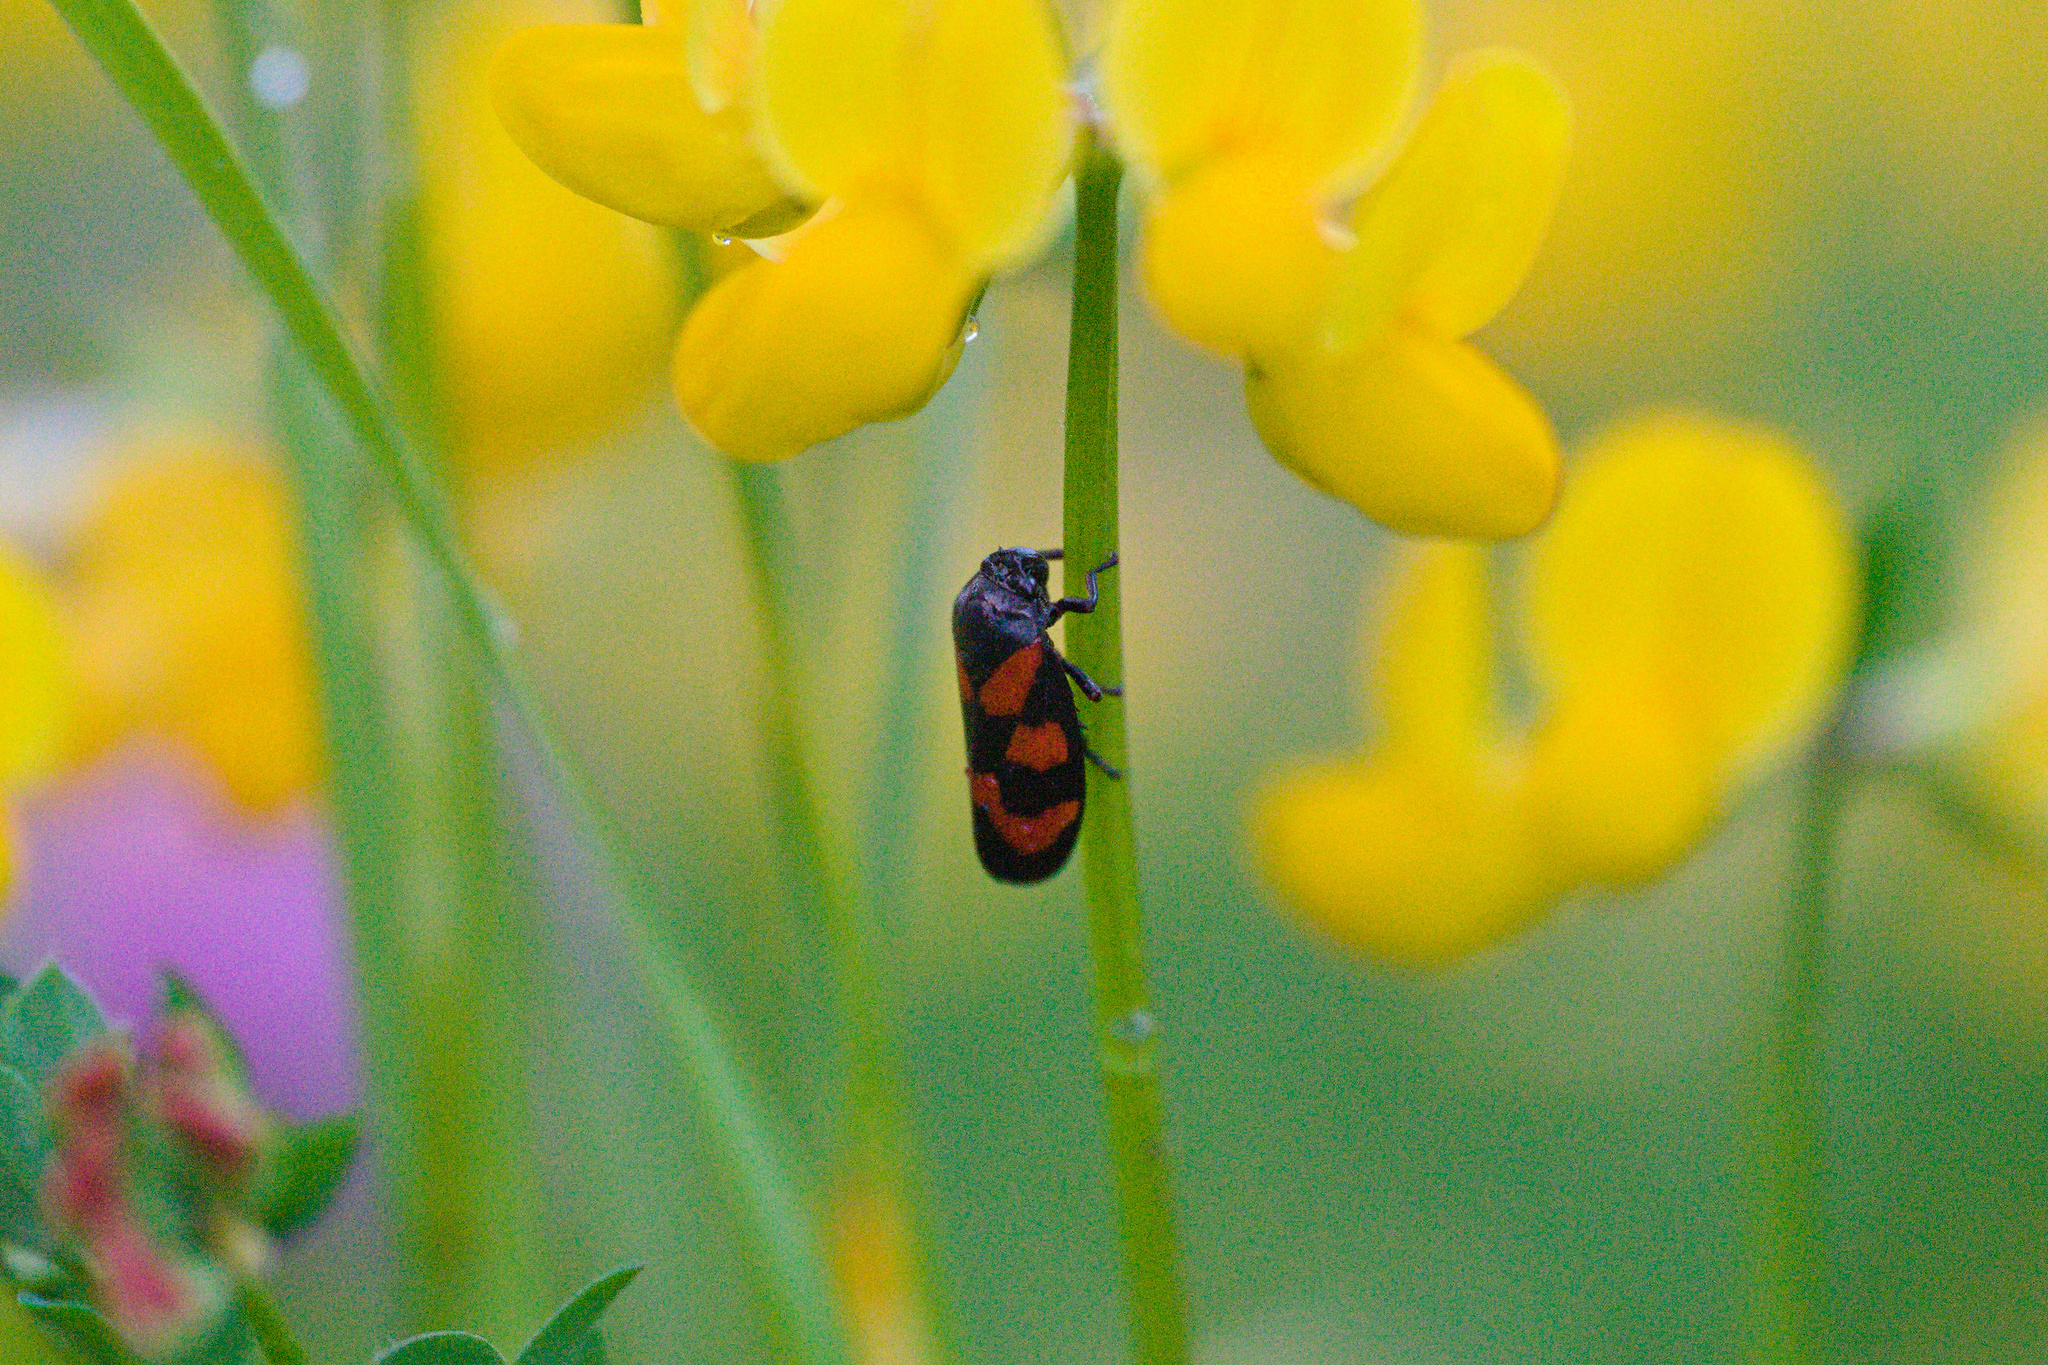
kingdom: Animalia
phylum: Arthropoda
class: Insecta
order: Hemiptera
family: Cercopidae
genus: Cercopis
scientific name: Cercopis vulnerata
